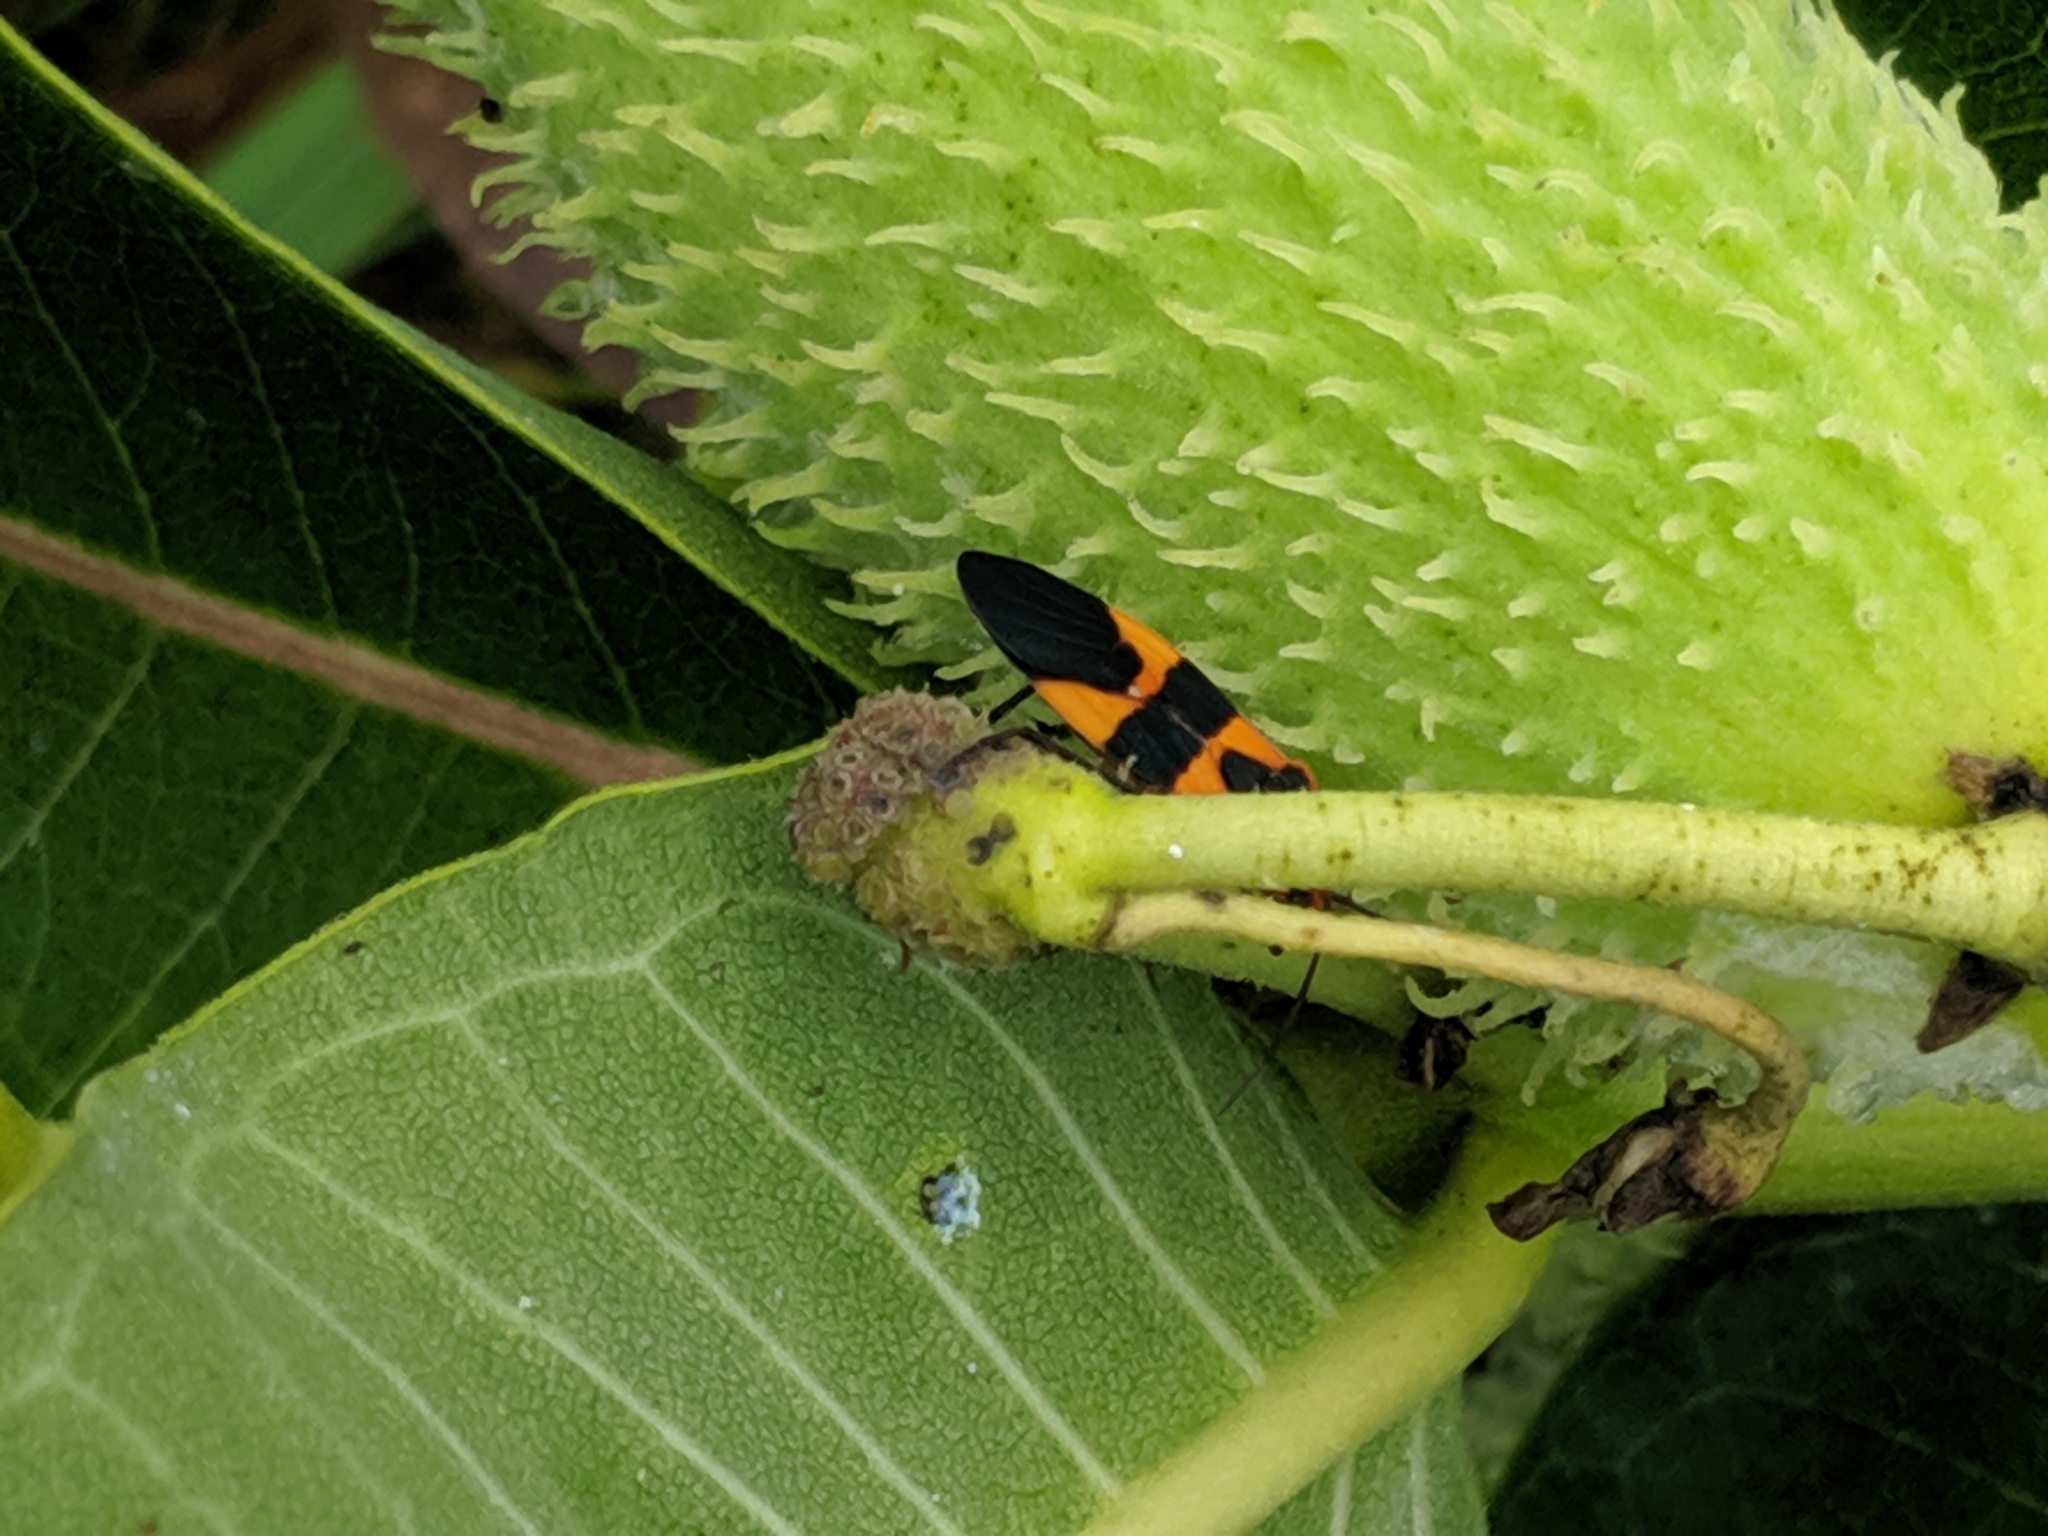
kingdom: Animalia
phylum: Arthropoda
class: Insecta
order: Hemiptera
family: Lygaeidae
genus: Oncopeltus
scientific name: Oncopeltus fasciatus
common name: Large milkweed bug
